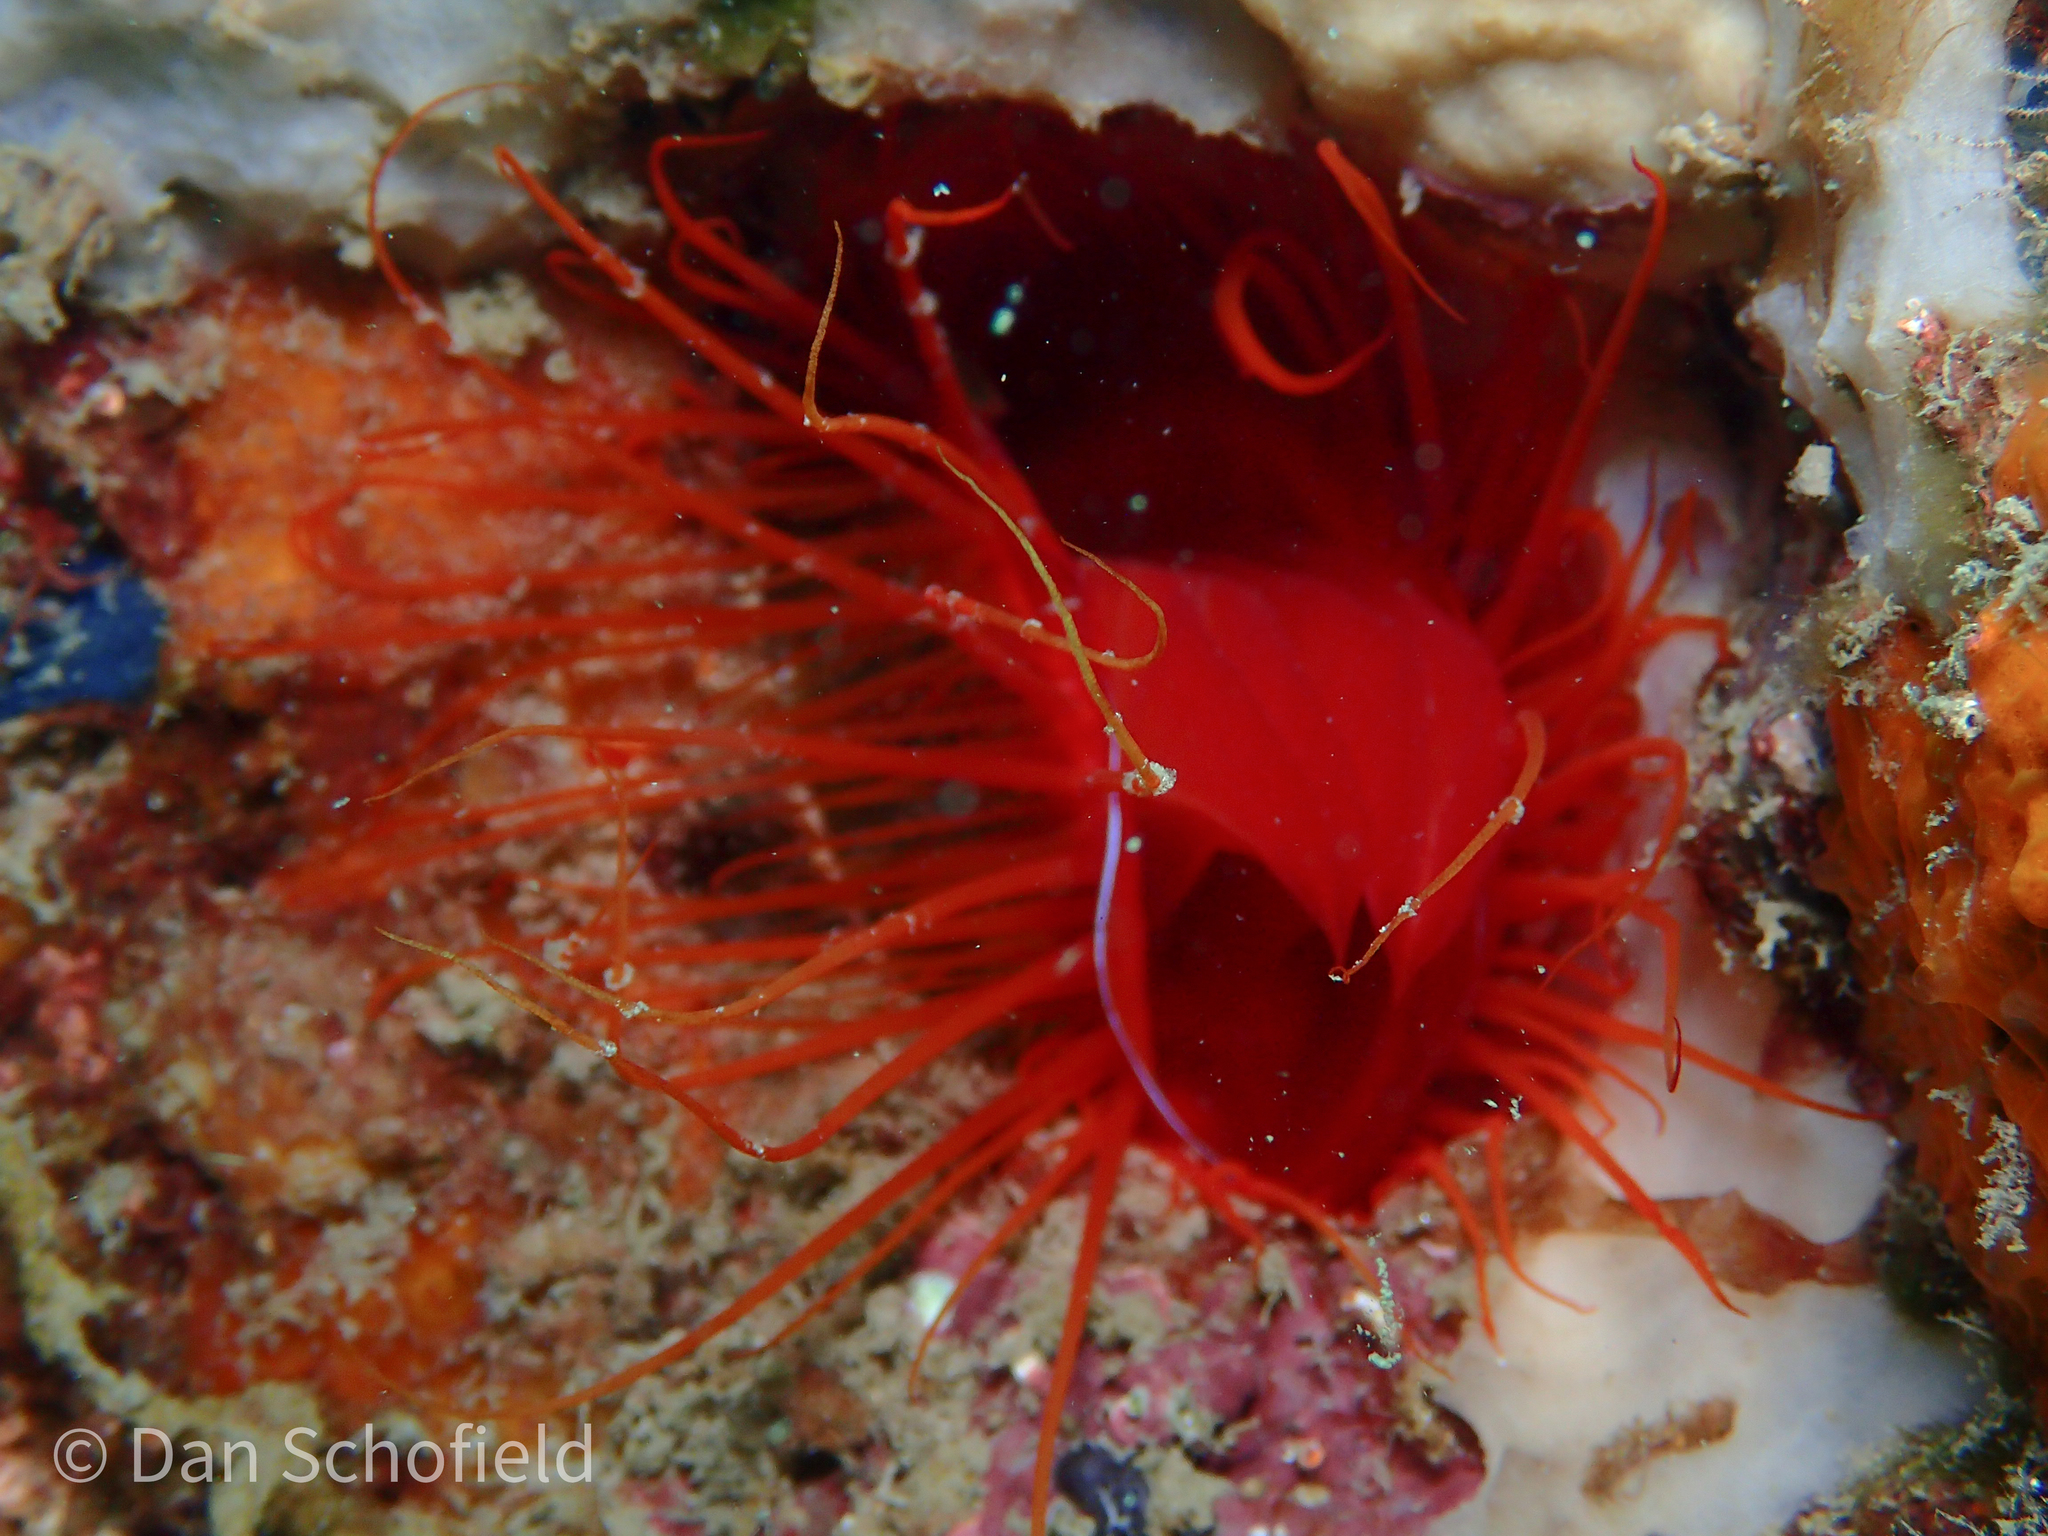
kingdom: Animalia
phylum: Mollusca
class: Bivalvia
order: Limida
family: Limidae
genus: Ctenoides
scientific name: Ctenoides ales
